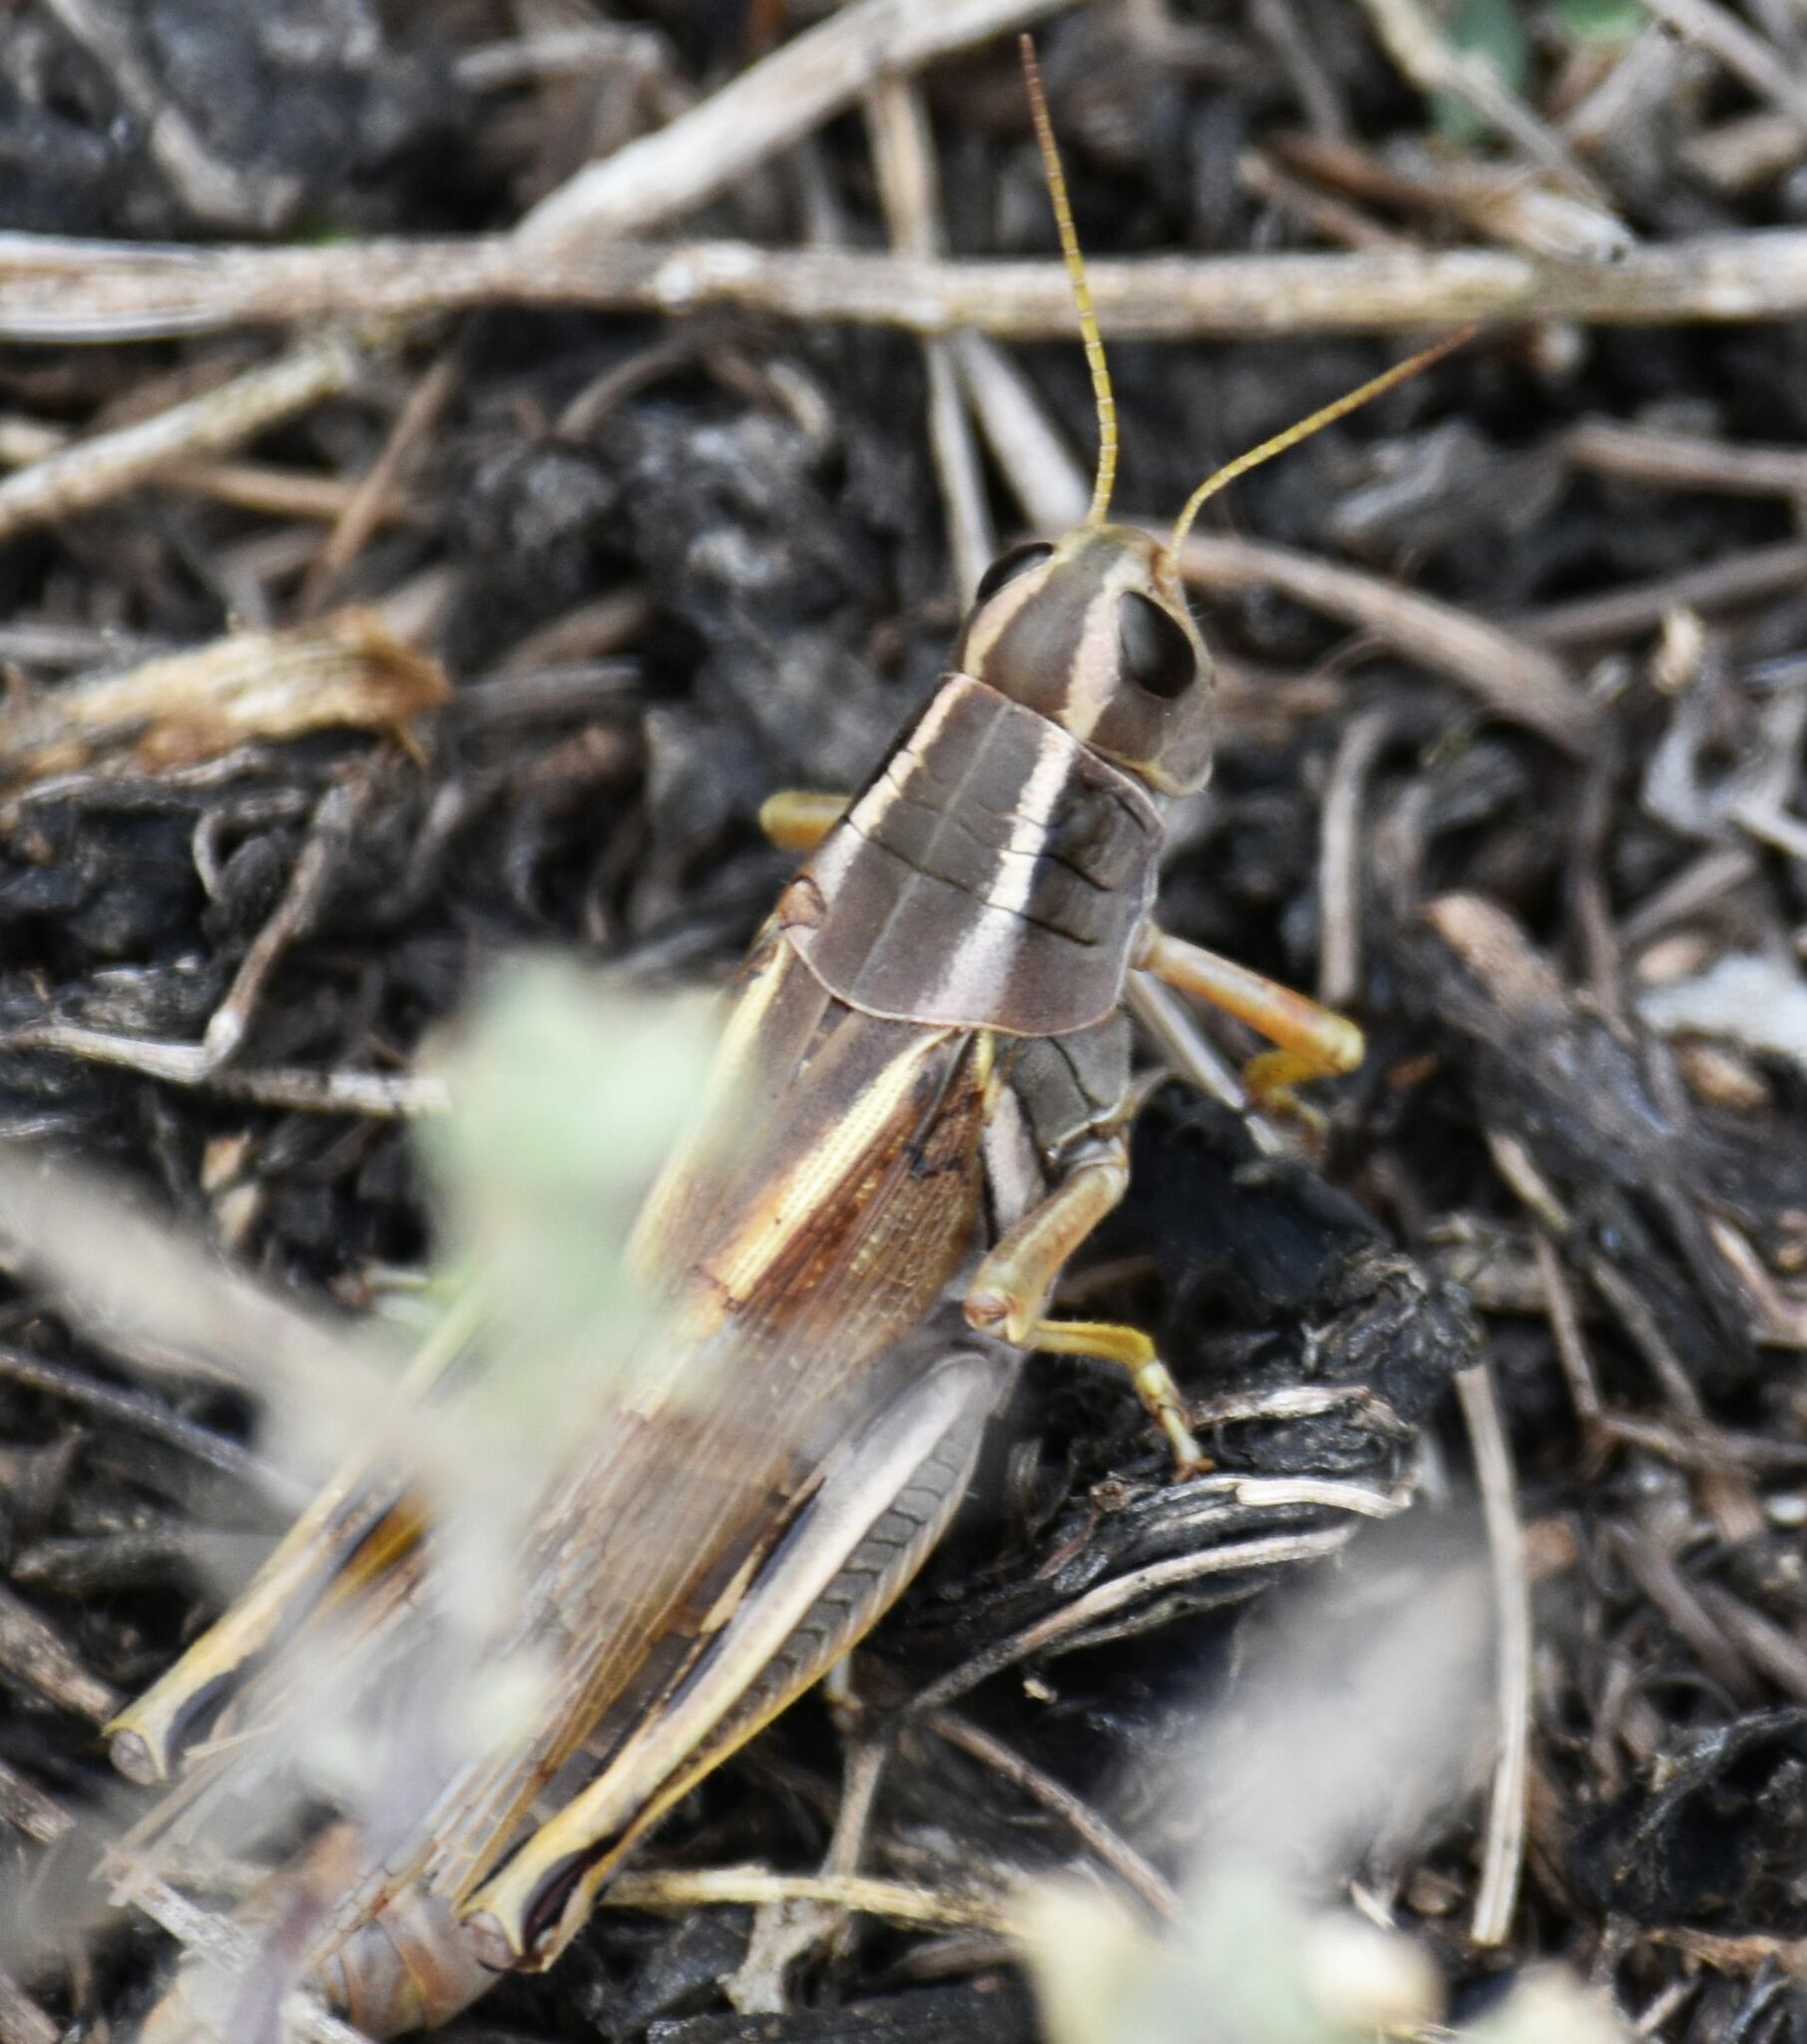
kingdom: Animalia
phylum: Arthropoda
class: Insecta
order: Orthoptera
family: Acrididae
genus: Melanoplus
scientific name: Melanoplus bivittatus
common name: Two-striped grasshopper
